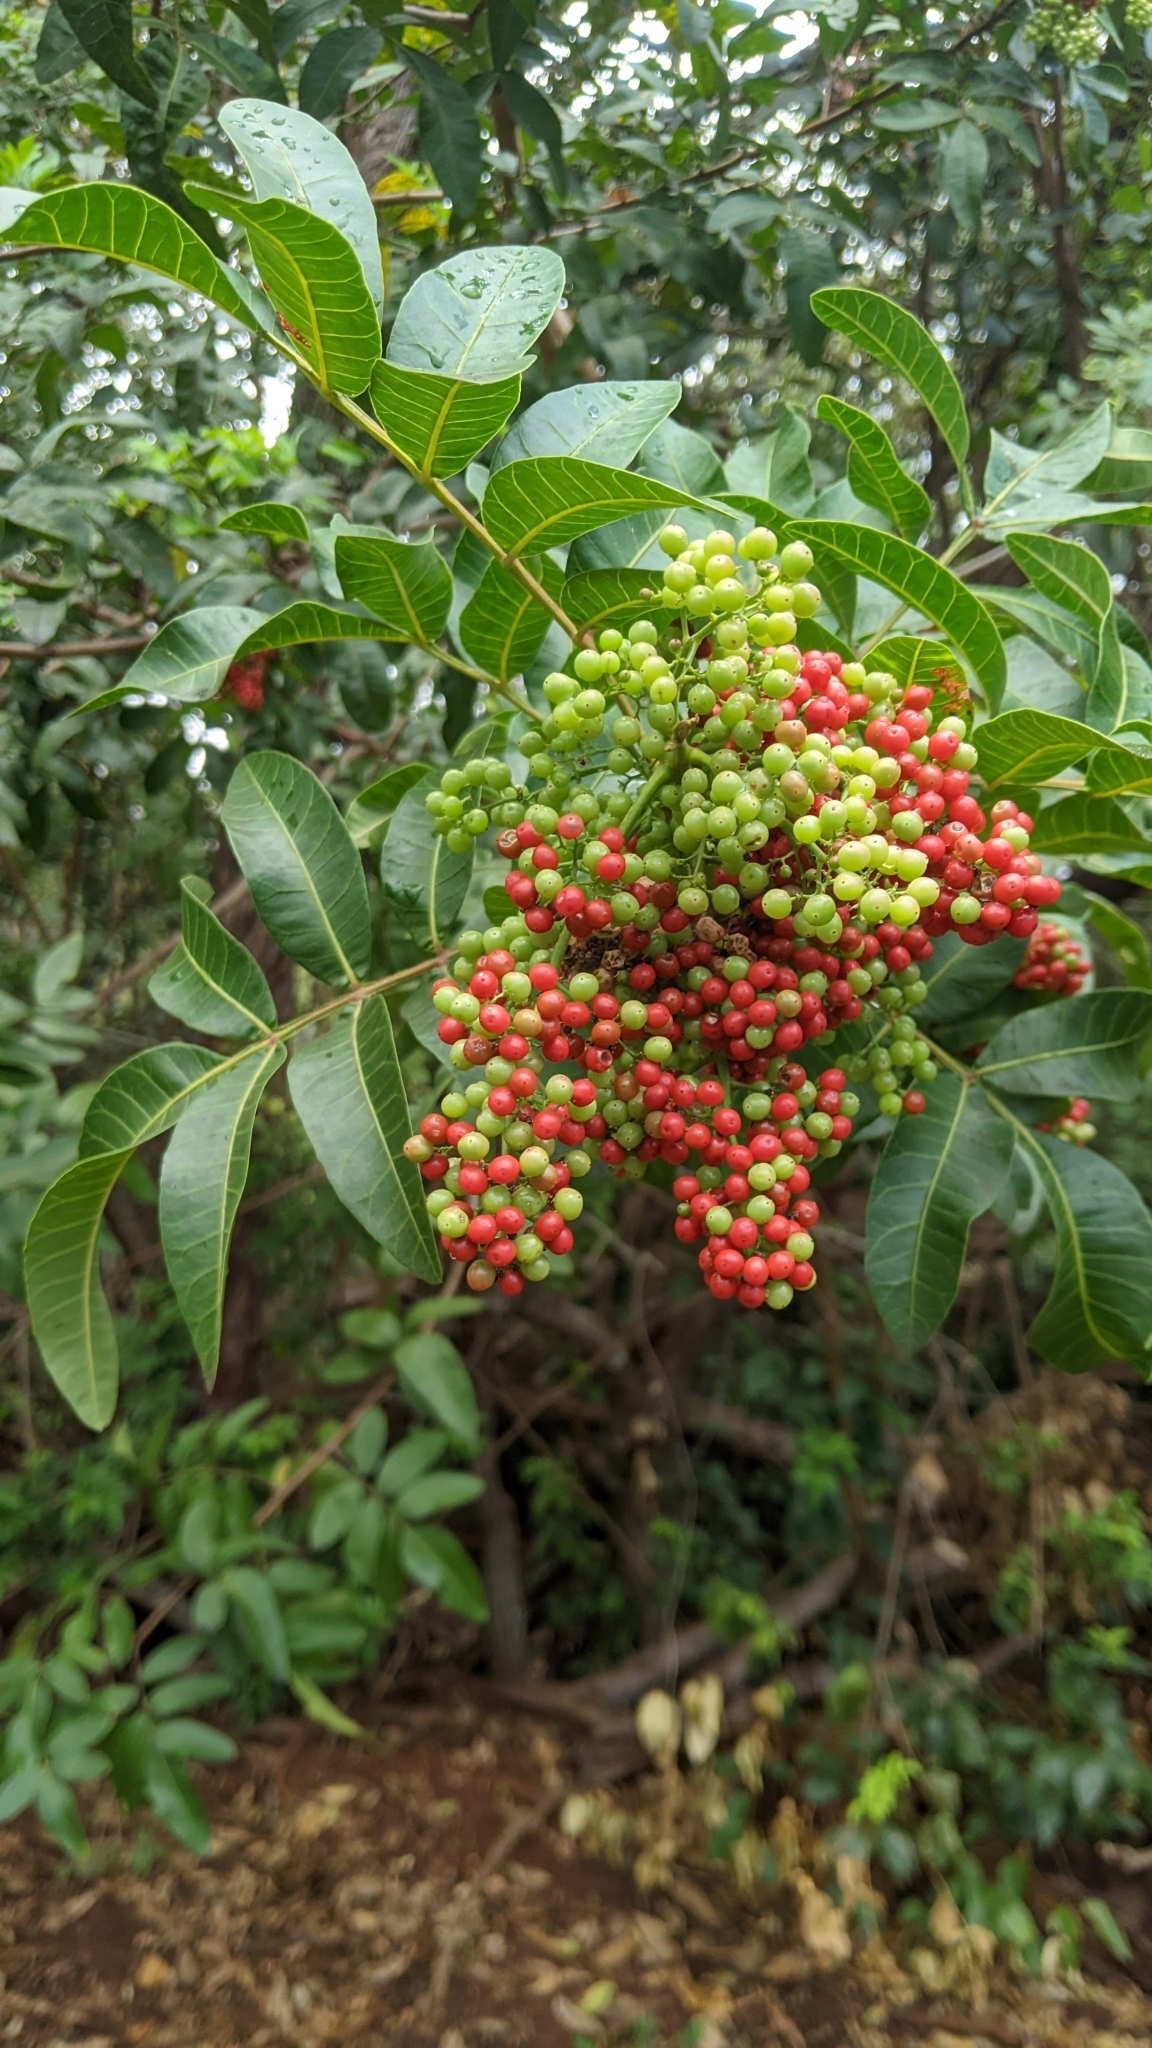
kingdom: Plantae
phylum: Tracheophyta
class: Magnoliopsida
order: Sapindales
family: Anacardiaceae
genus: Schinus
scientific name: Schinus terebinthifolia
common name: Brazilian peppertree
